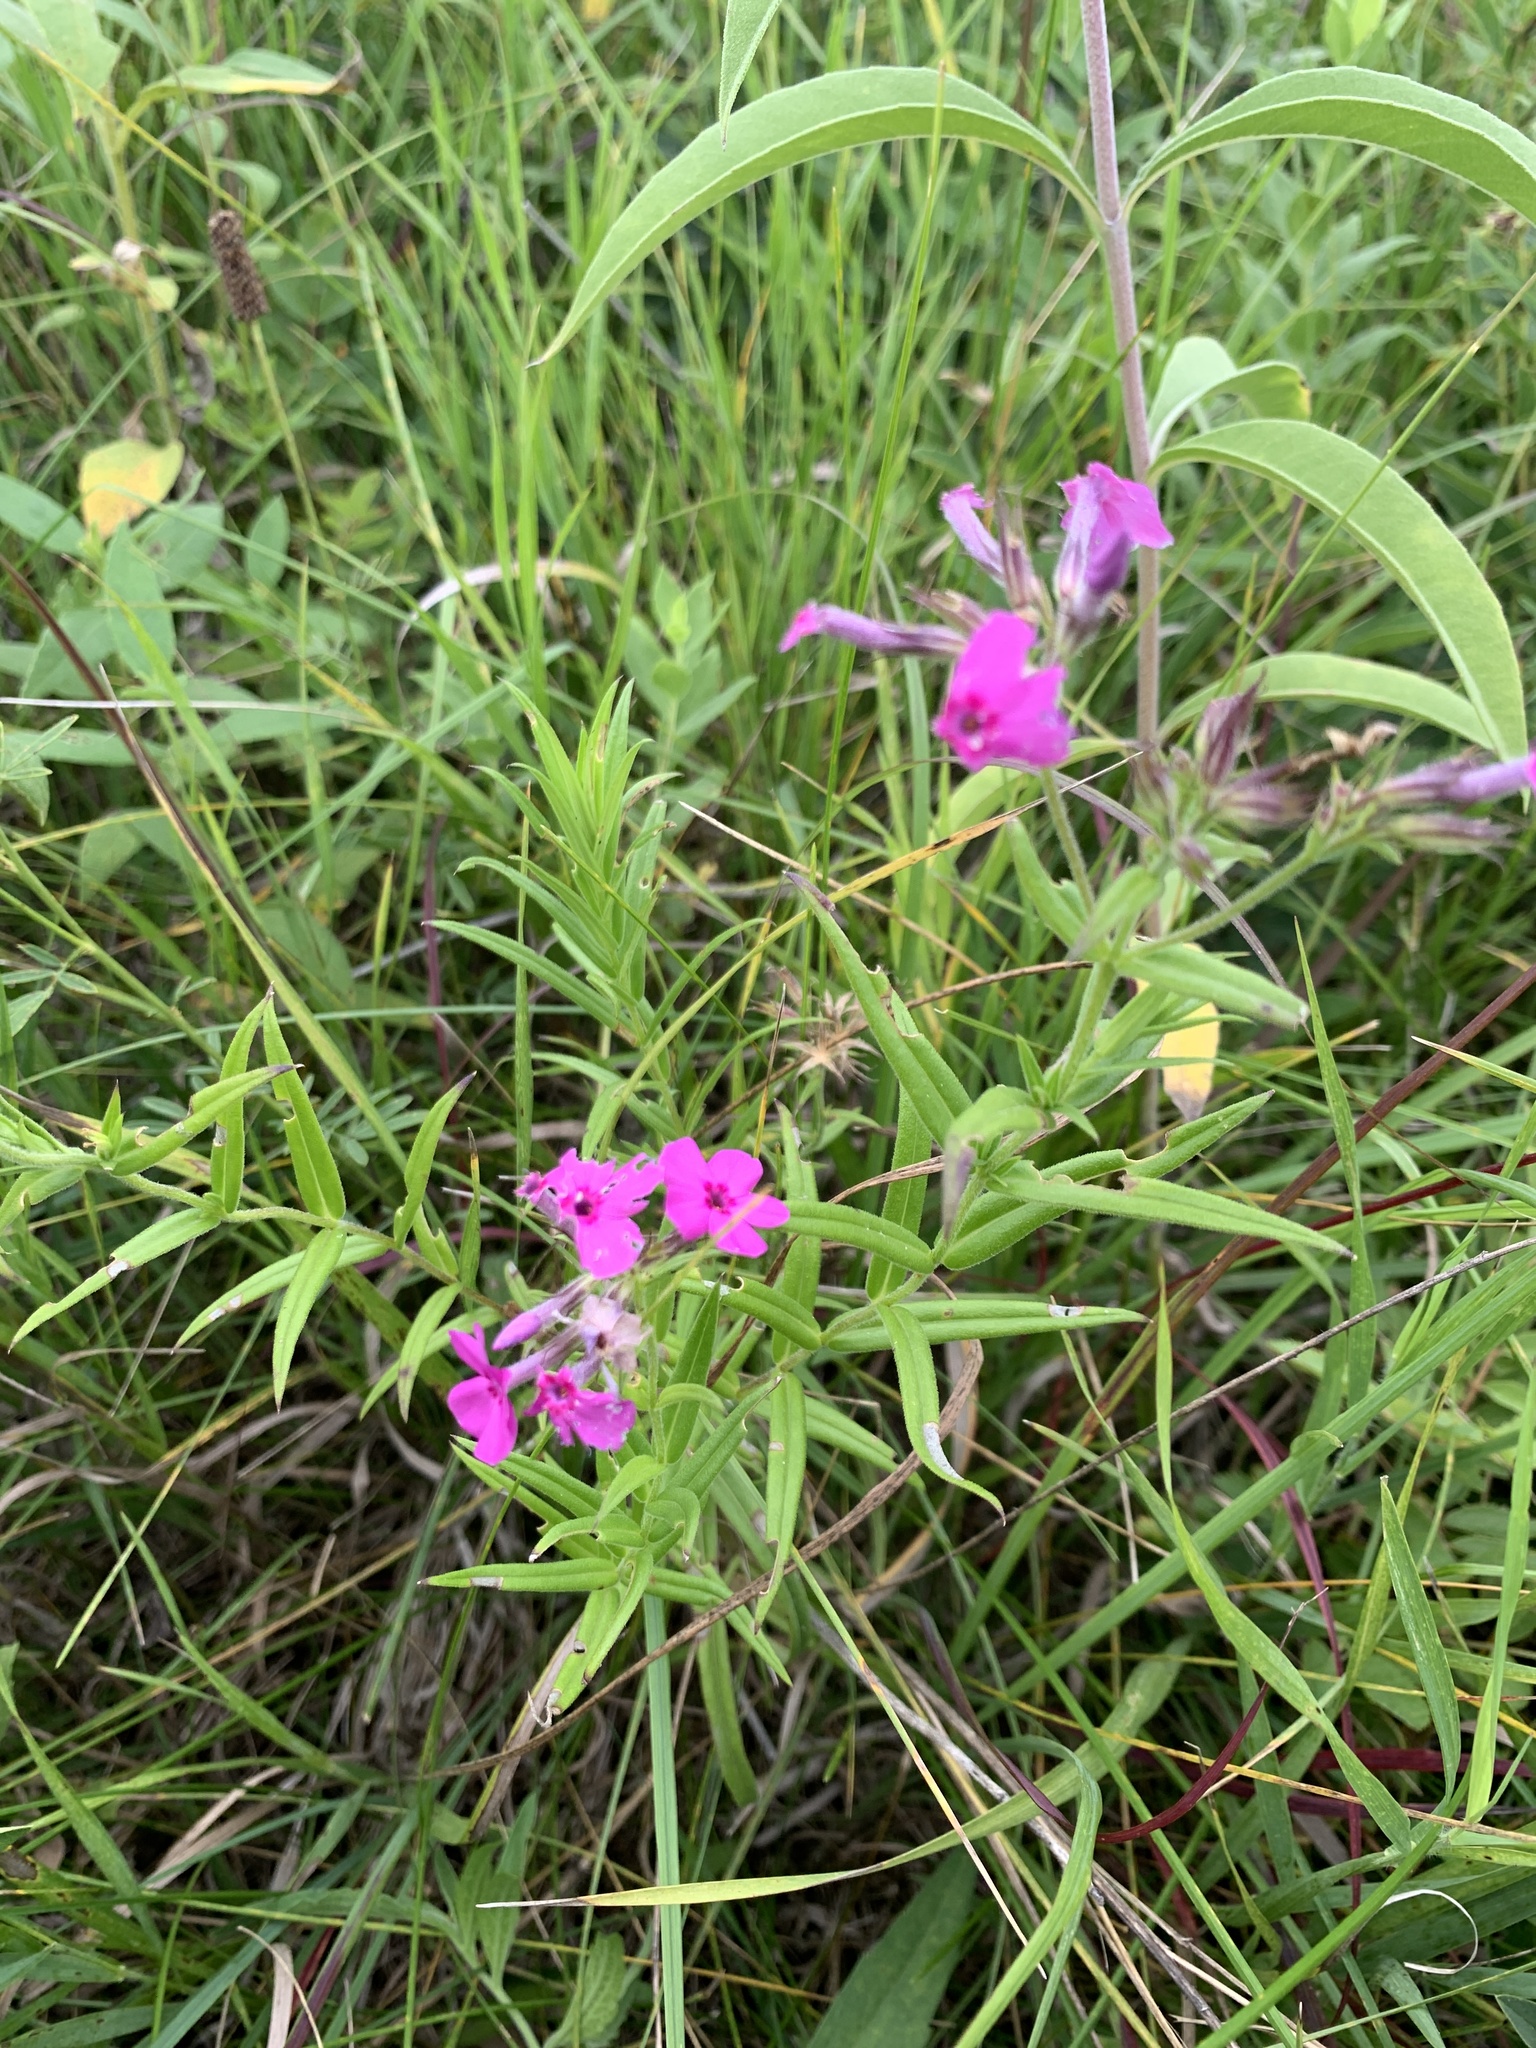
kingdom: Plantae
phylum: Tracheophyta
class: Magnoliopsida
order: Ericales
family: Polemoniaceae
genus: Phlox
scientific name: Phlox pilosa
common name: Prairie phlox
